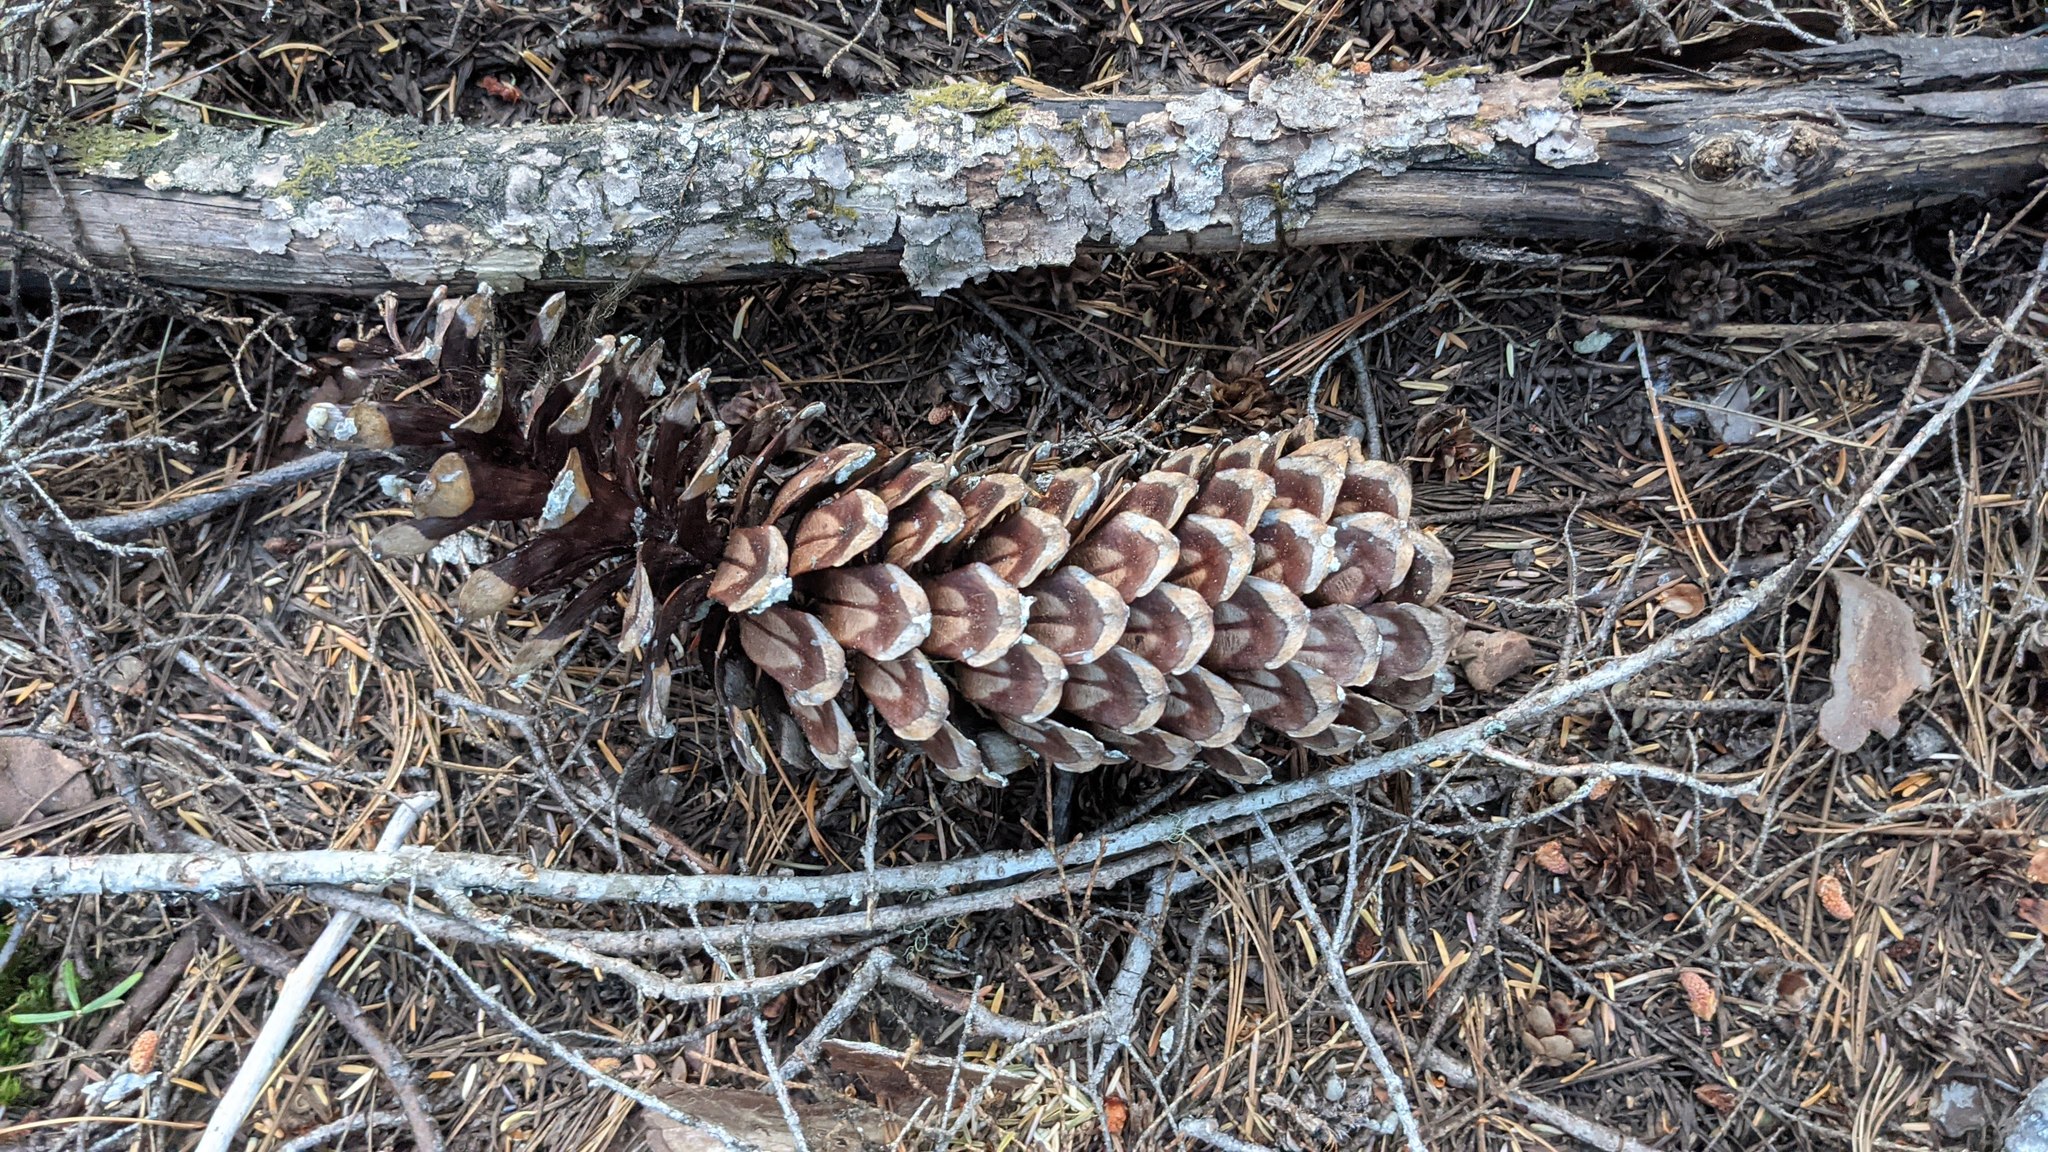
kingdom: Plantae
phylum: Tracheophyta
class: Pinopsida
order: Pinales
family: Pinaceae
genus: Pinus
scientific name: Pinus monticola
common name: Western white pine
